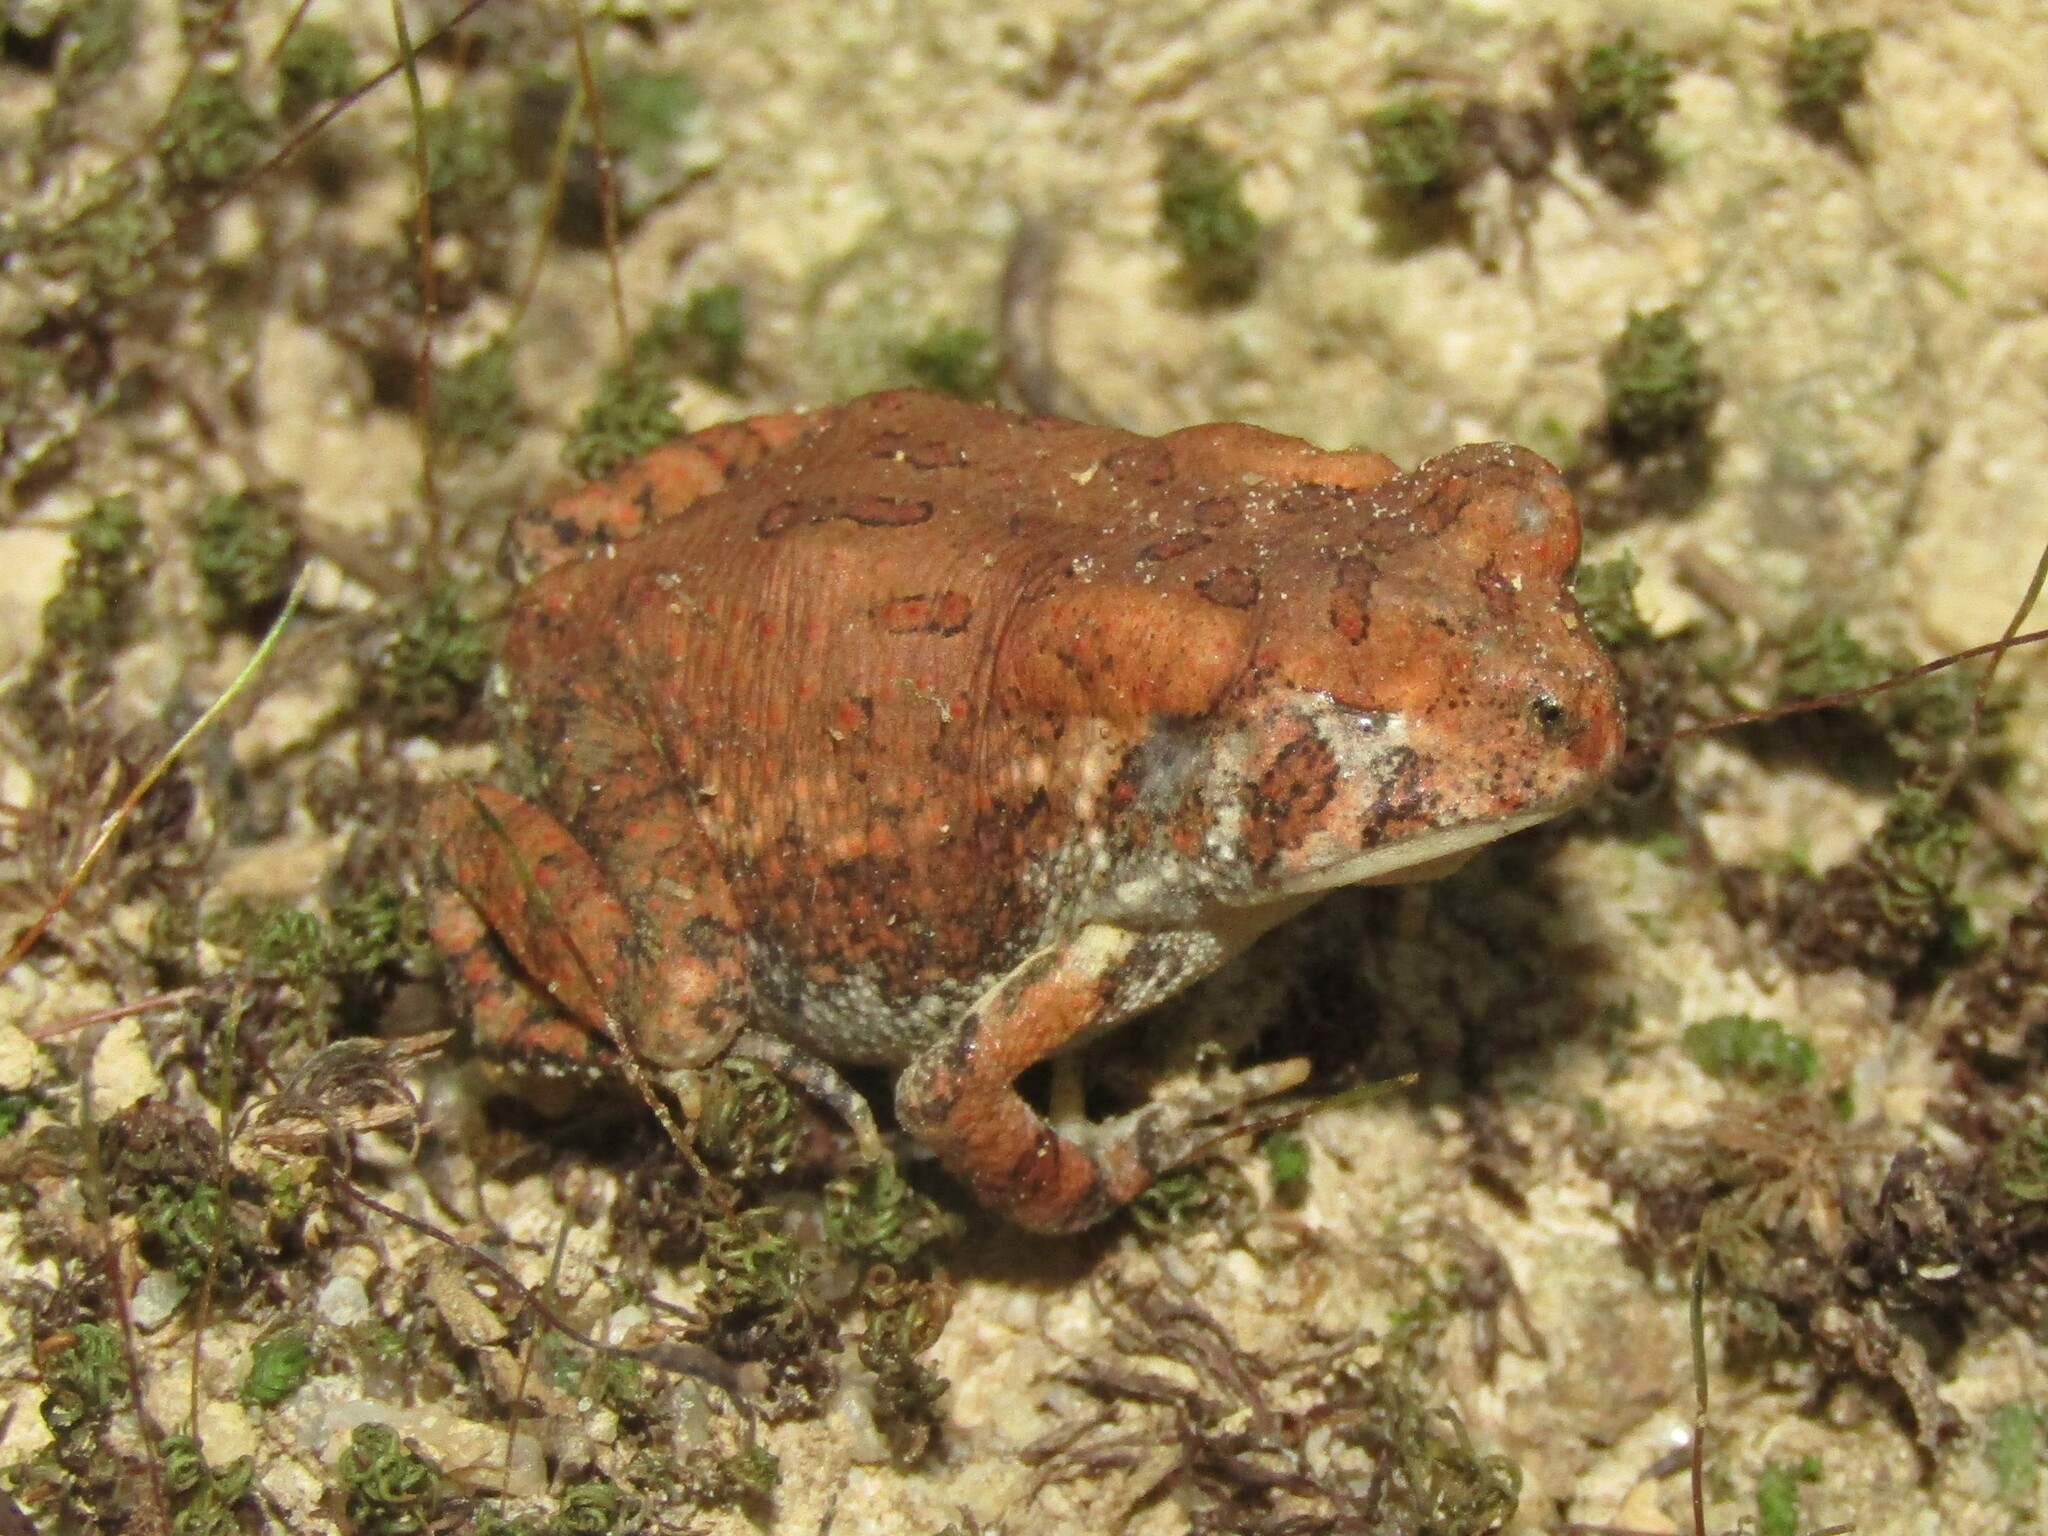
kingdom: Animalia
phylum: Chordata
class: Amphibia
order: Anura
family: Bufonidae
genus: Anaxyrus
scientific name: Anaxyrus fowleri
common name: Fowler's toad
